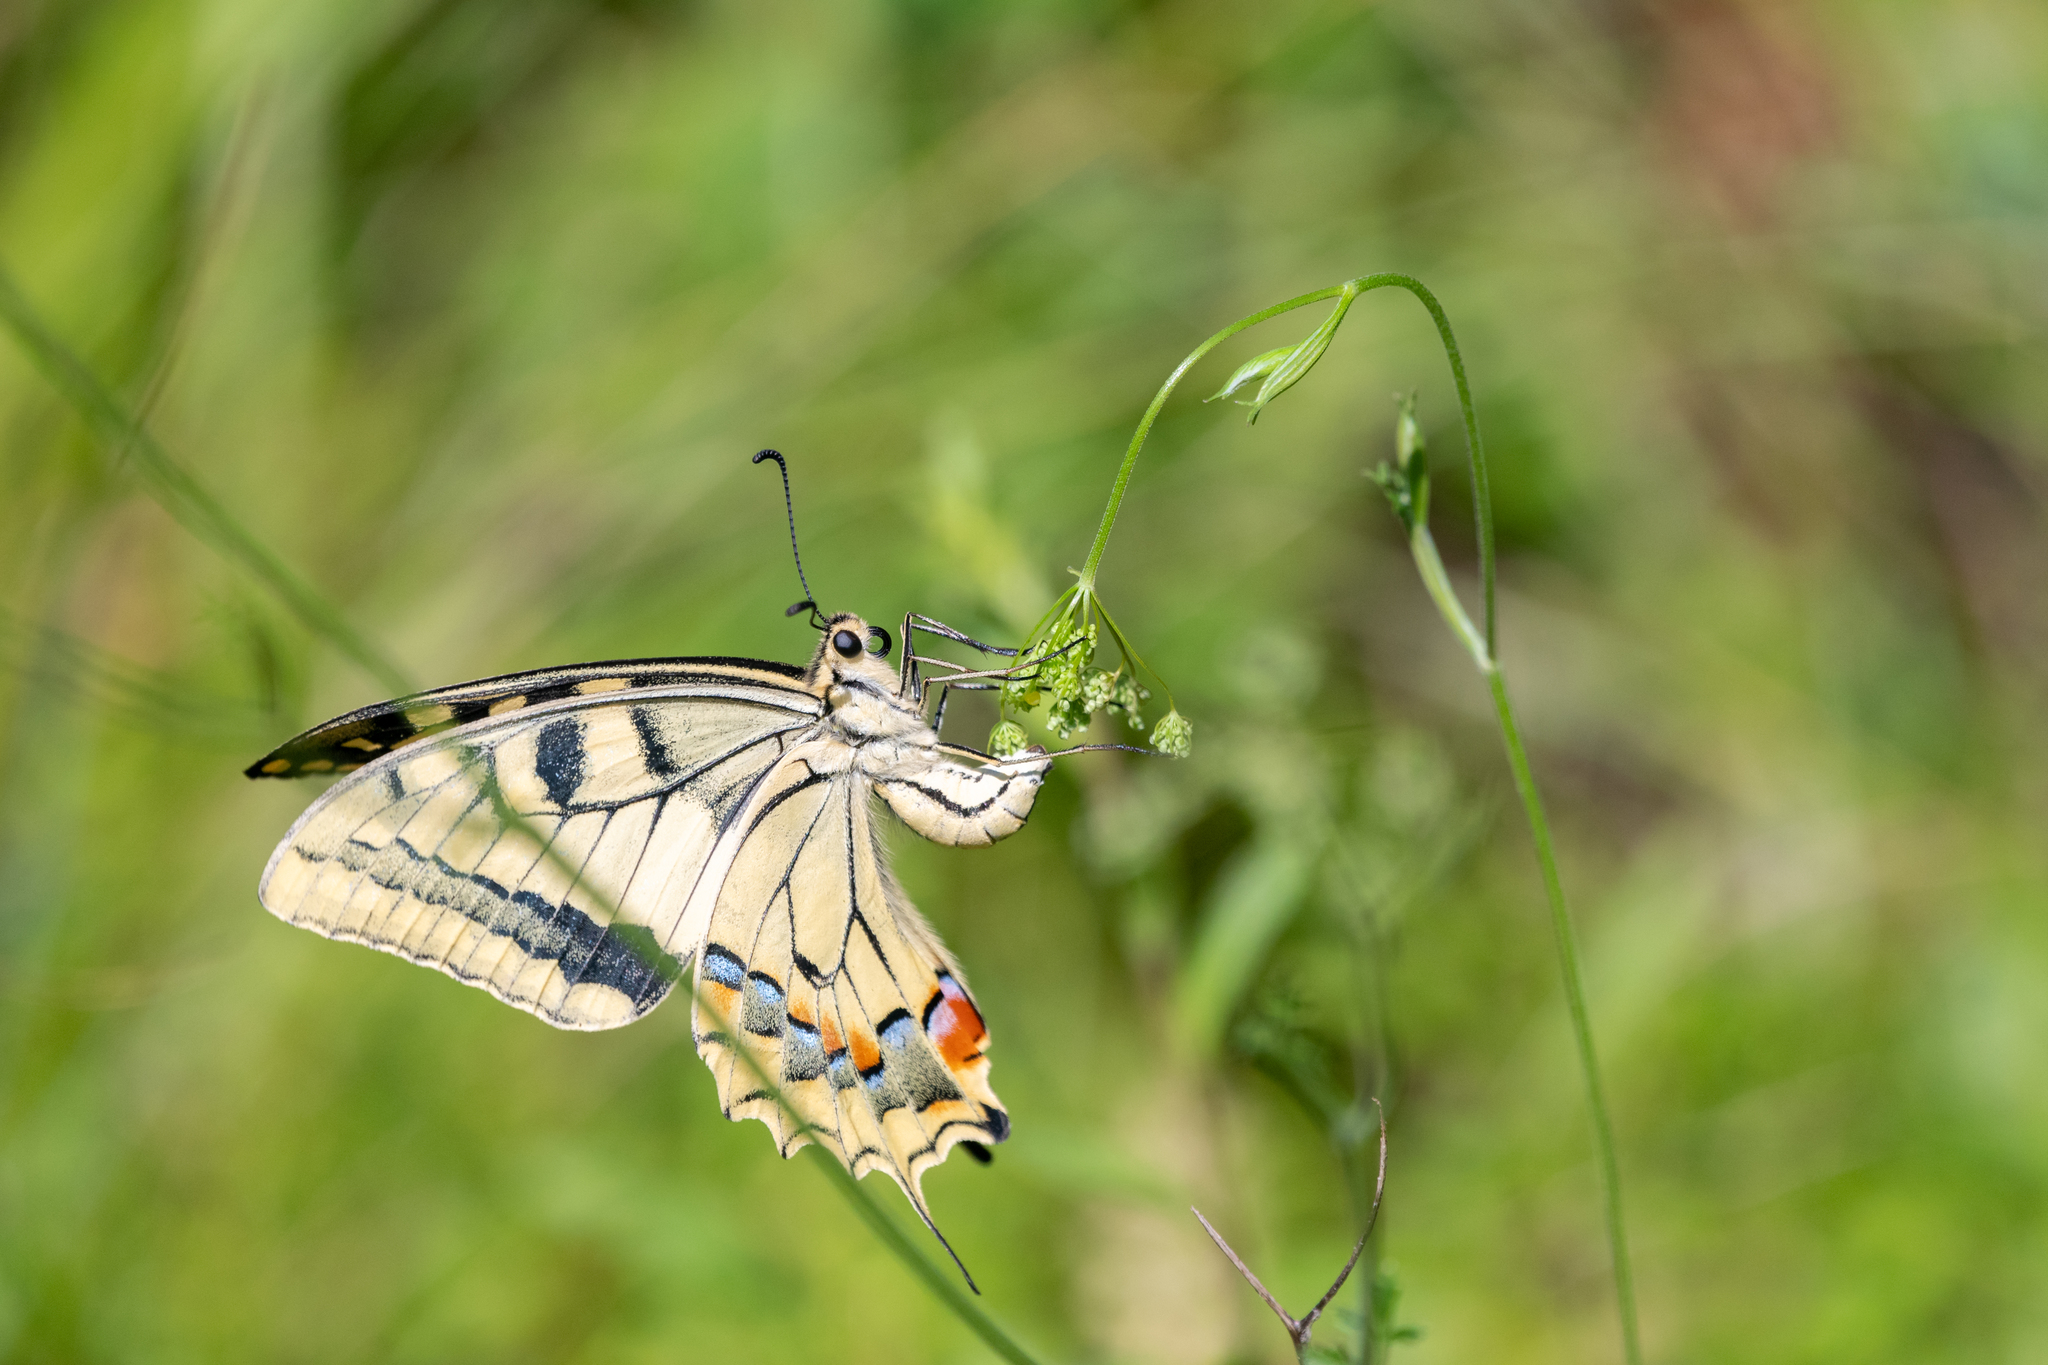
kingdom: Animalia
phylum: Arthropoda
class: Insecta
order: Lepidoptera
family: Papilionidae
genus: Papilio
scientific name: Papilio machaon
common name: Swallowtail
